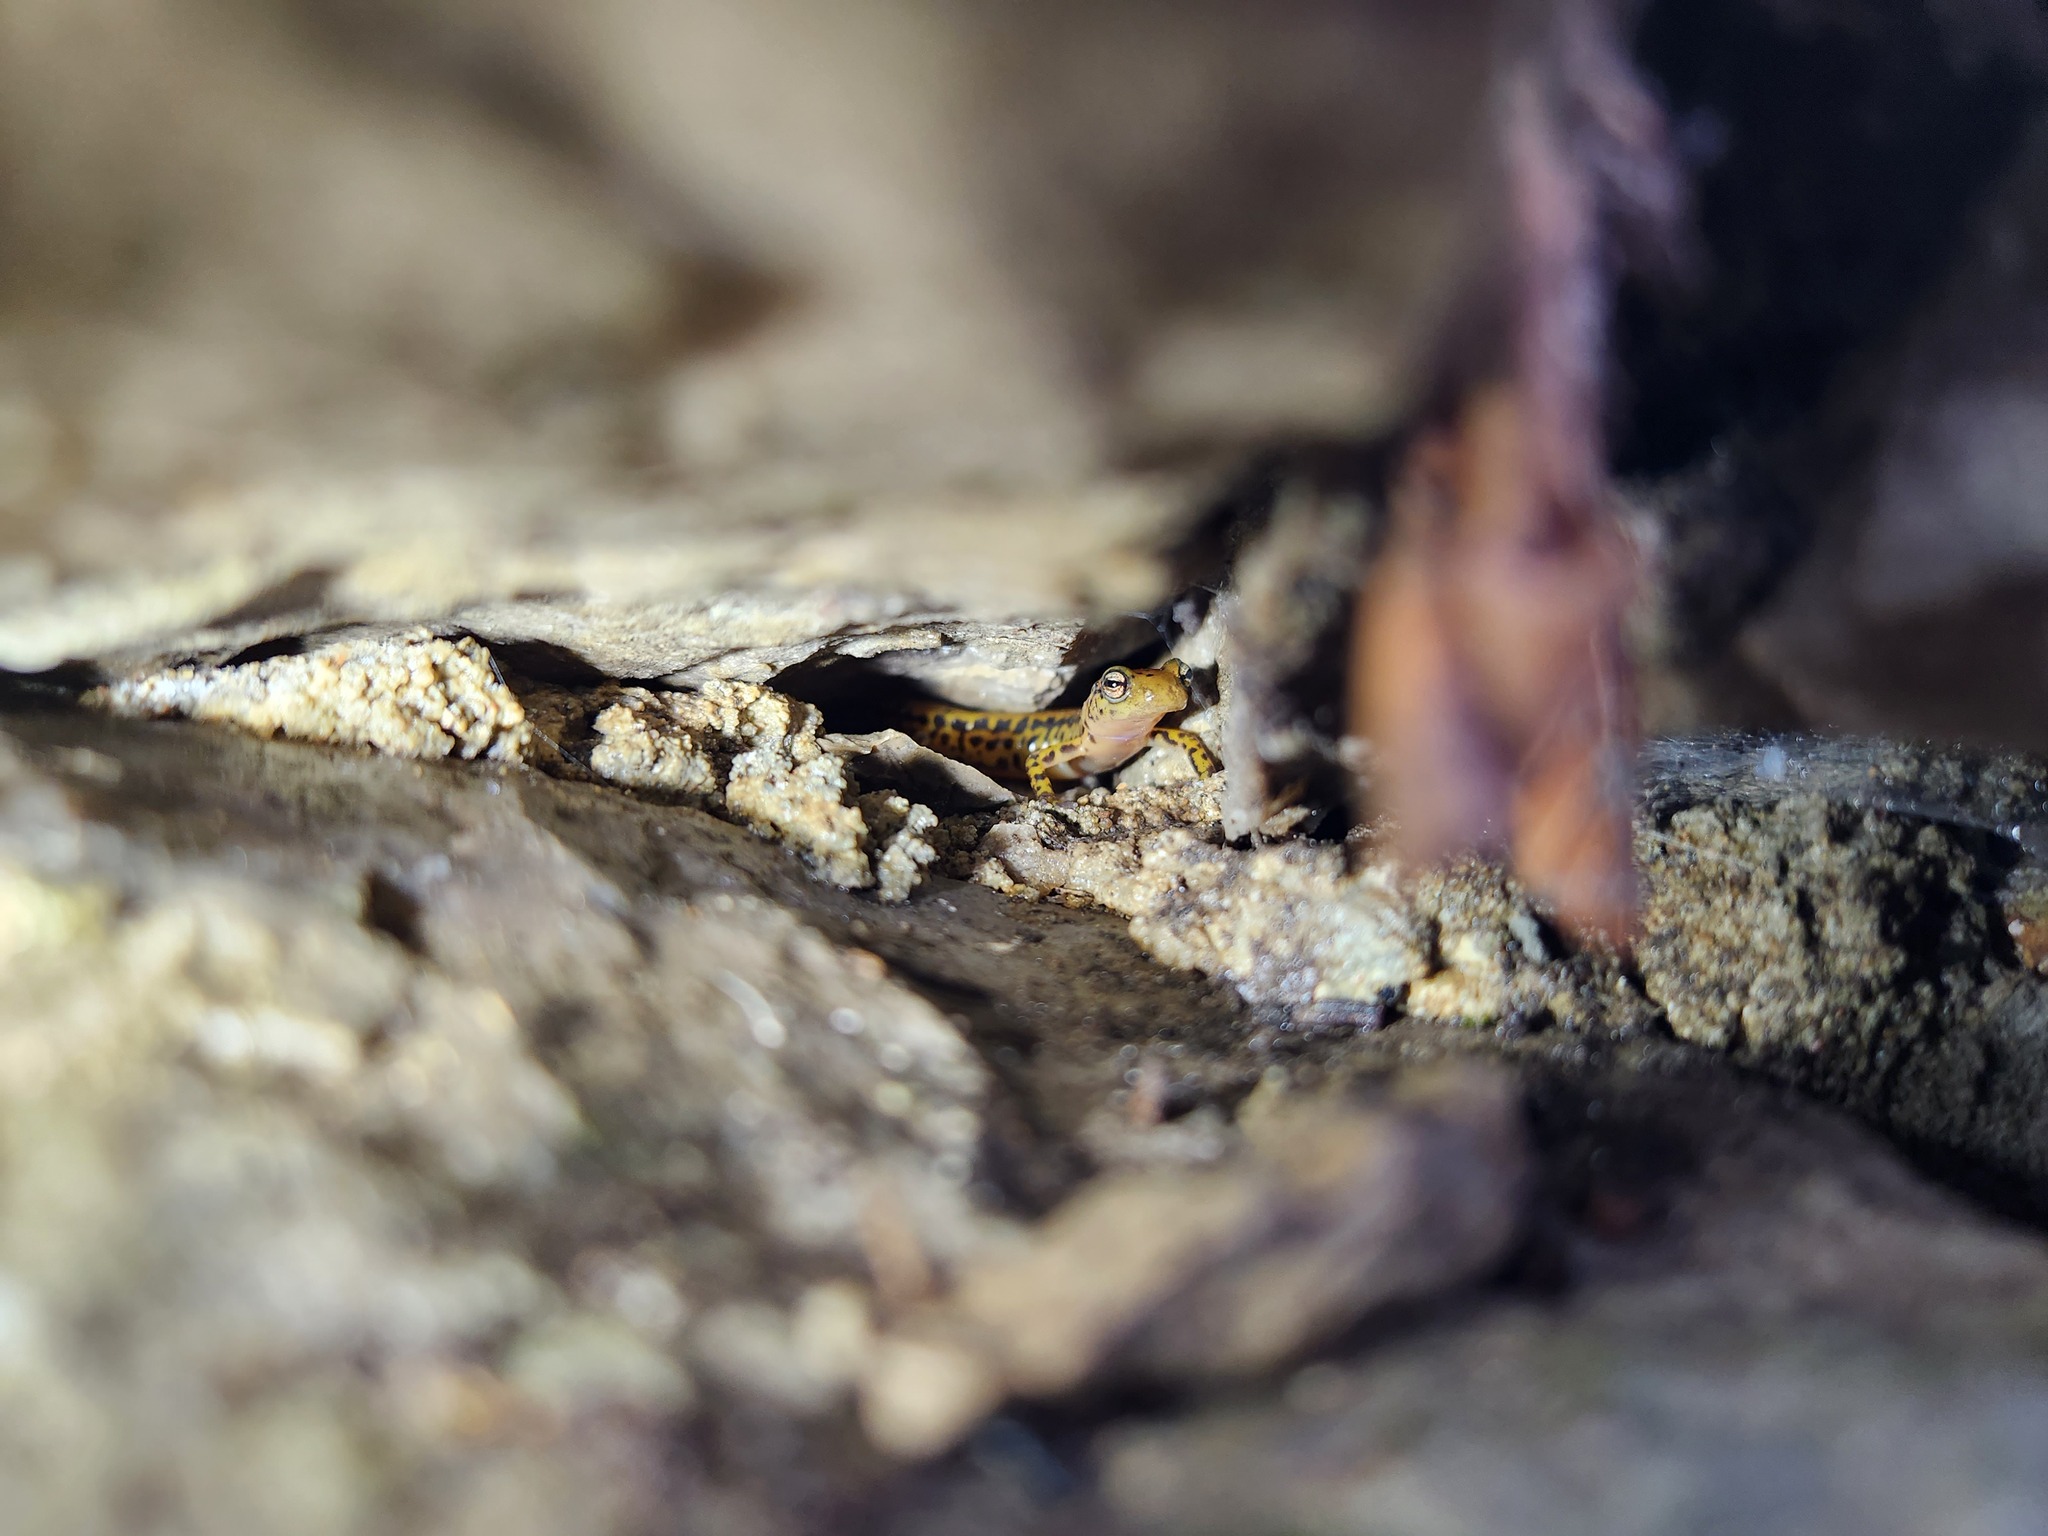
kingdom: Animalia
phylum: Chordata
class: Amphibia
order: Caudata
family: Plethodontidae
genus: Eurycea
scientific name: Eurycea longicauda
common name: Long-tailed salamander
